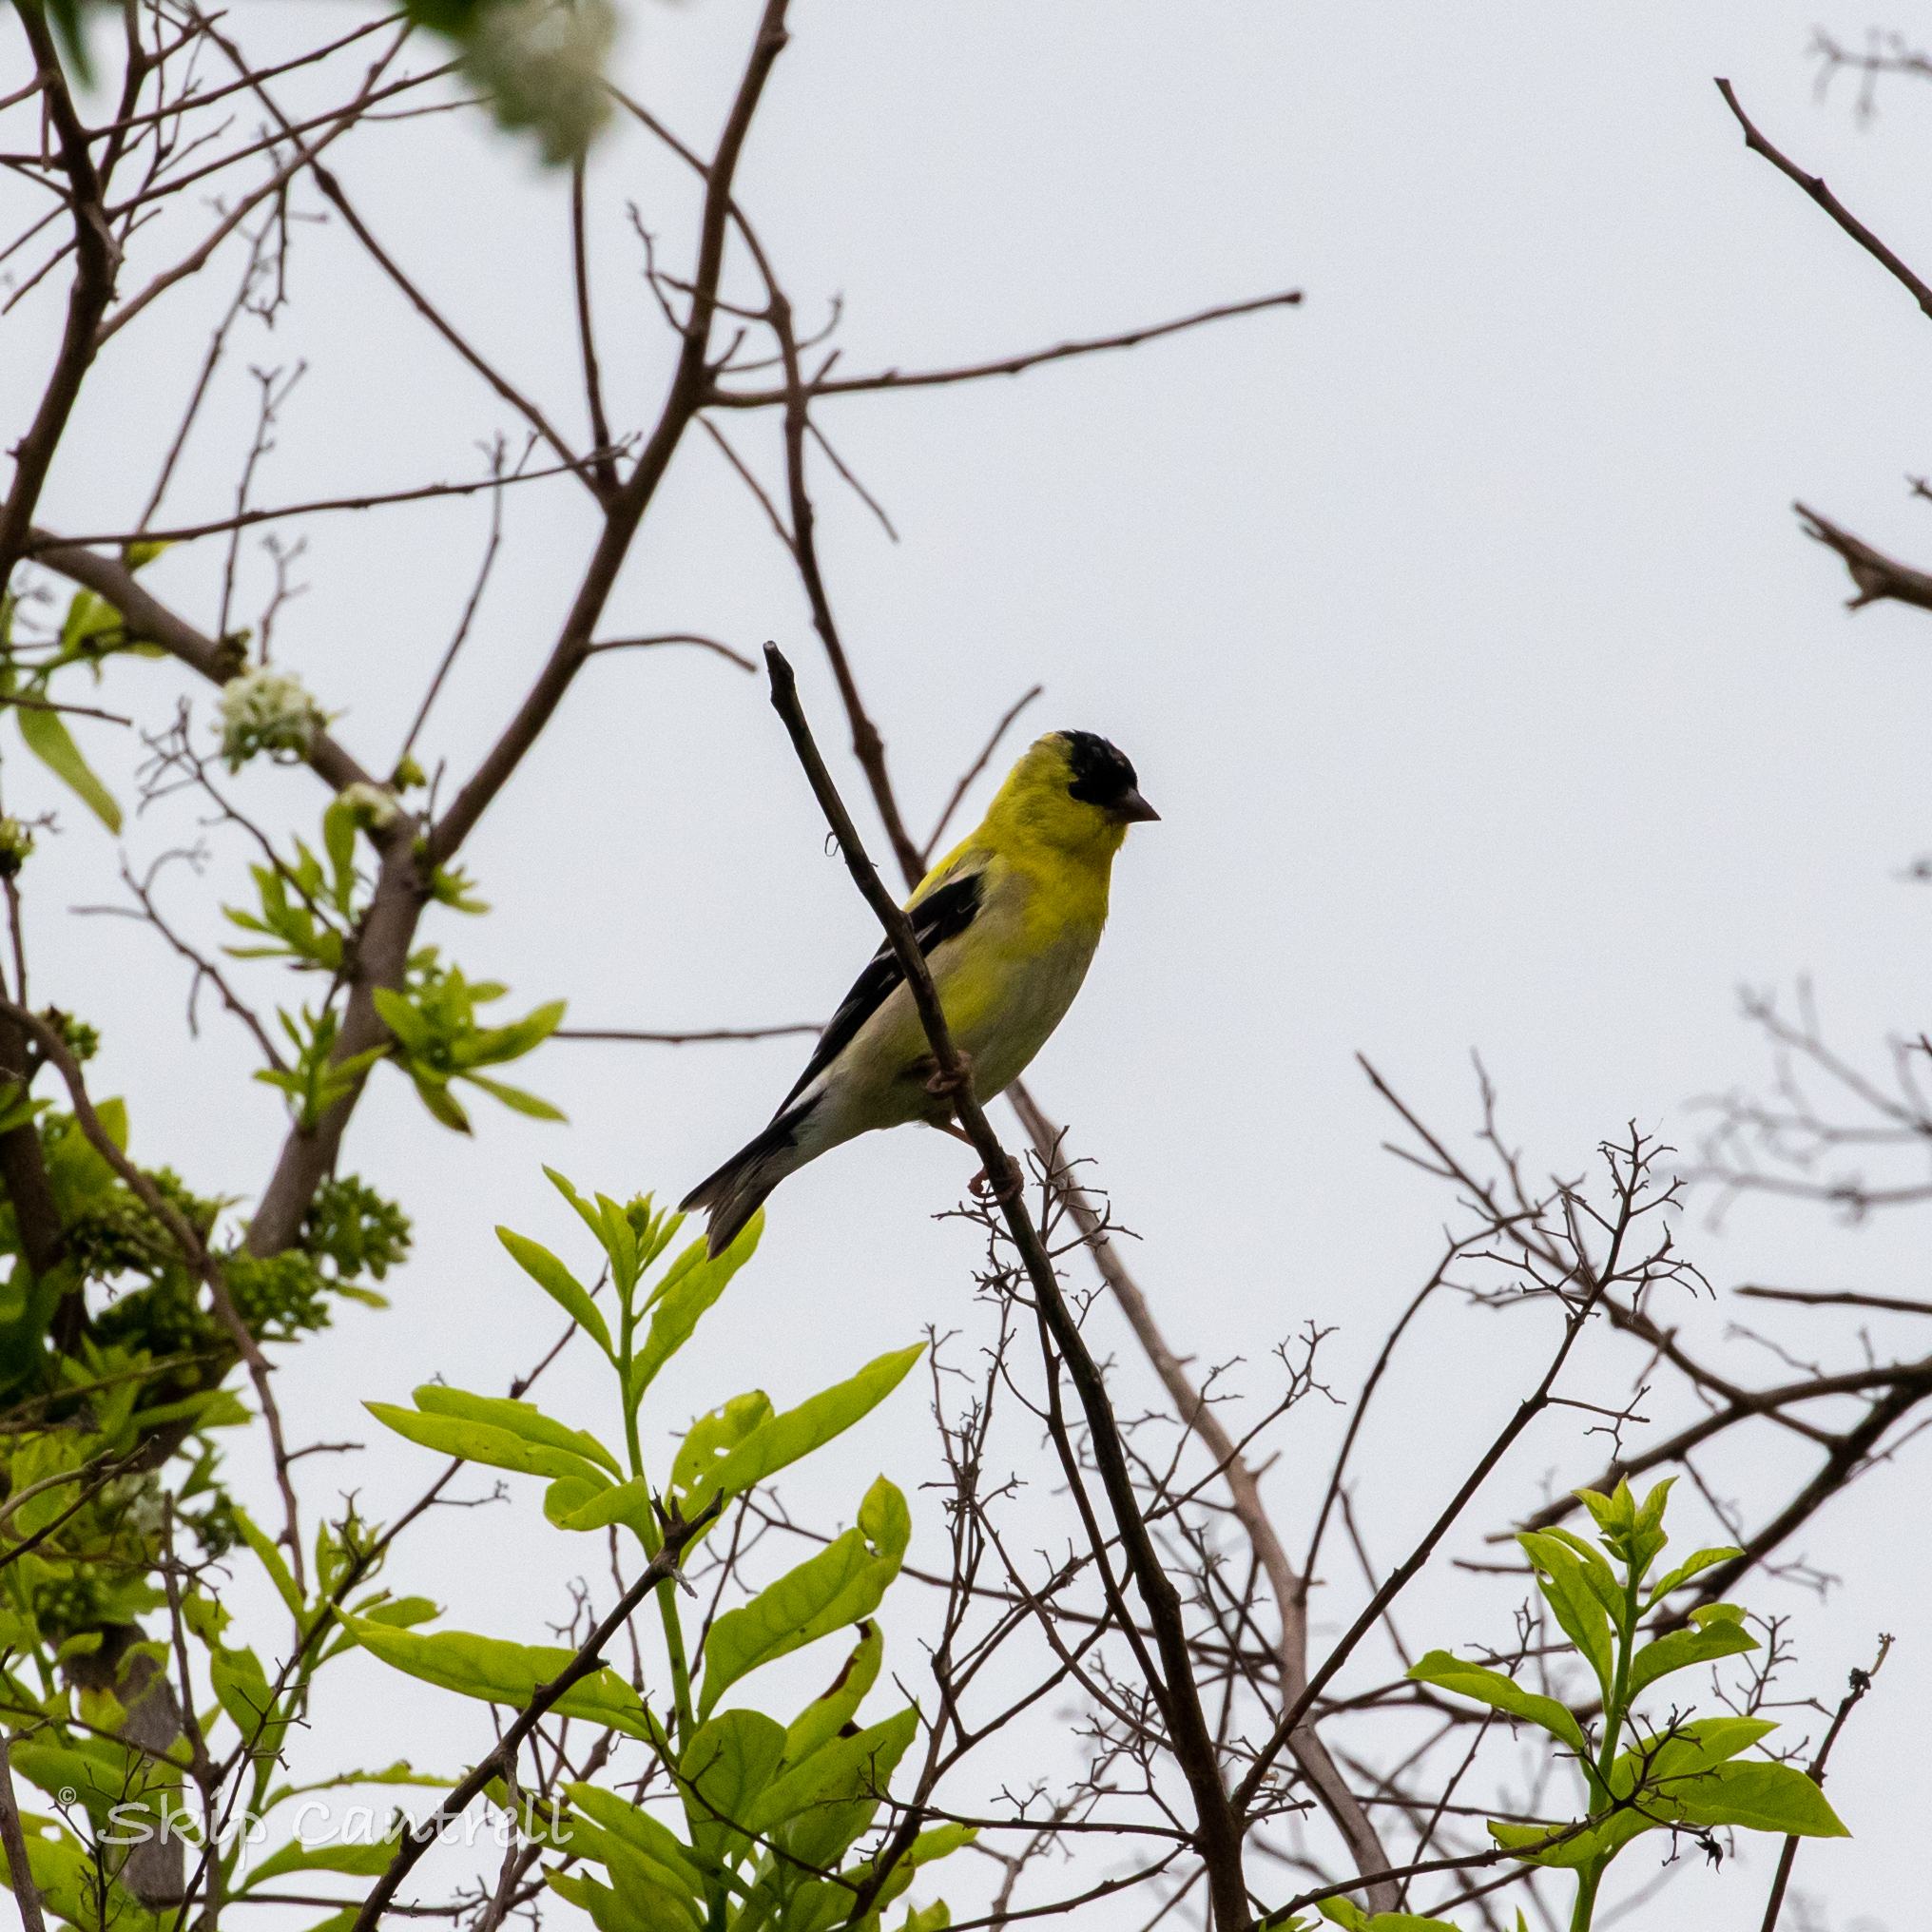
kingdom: Animalia
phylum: Chordata
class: Aves
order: Passeriformes
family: Fringillidae
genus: Spinus
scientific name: Spinus tristis
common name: American goldfinch
